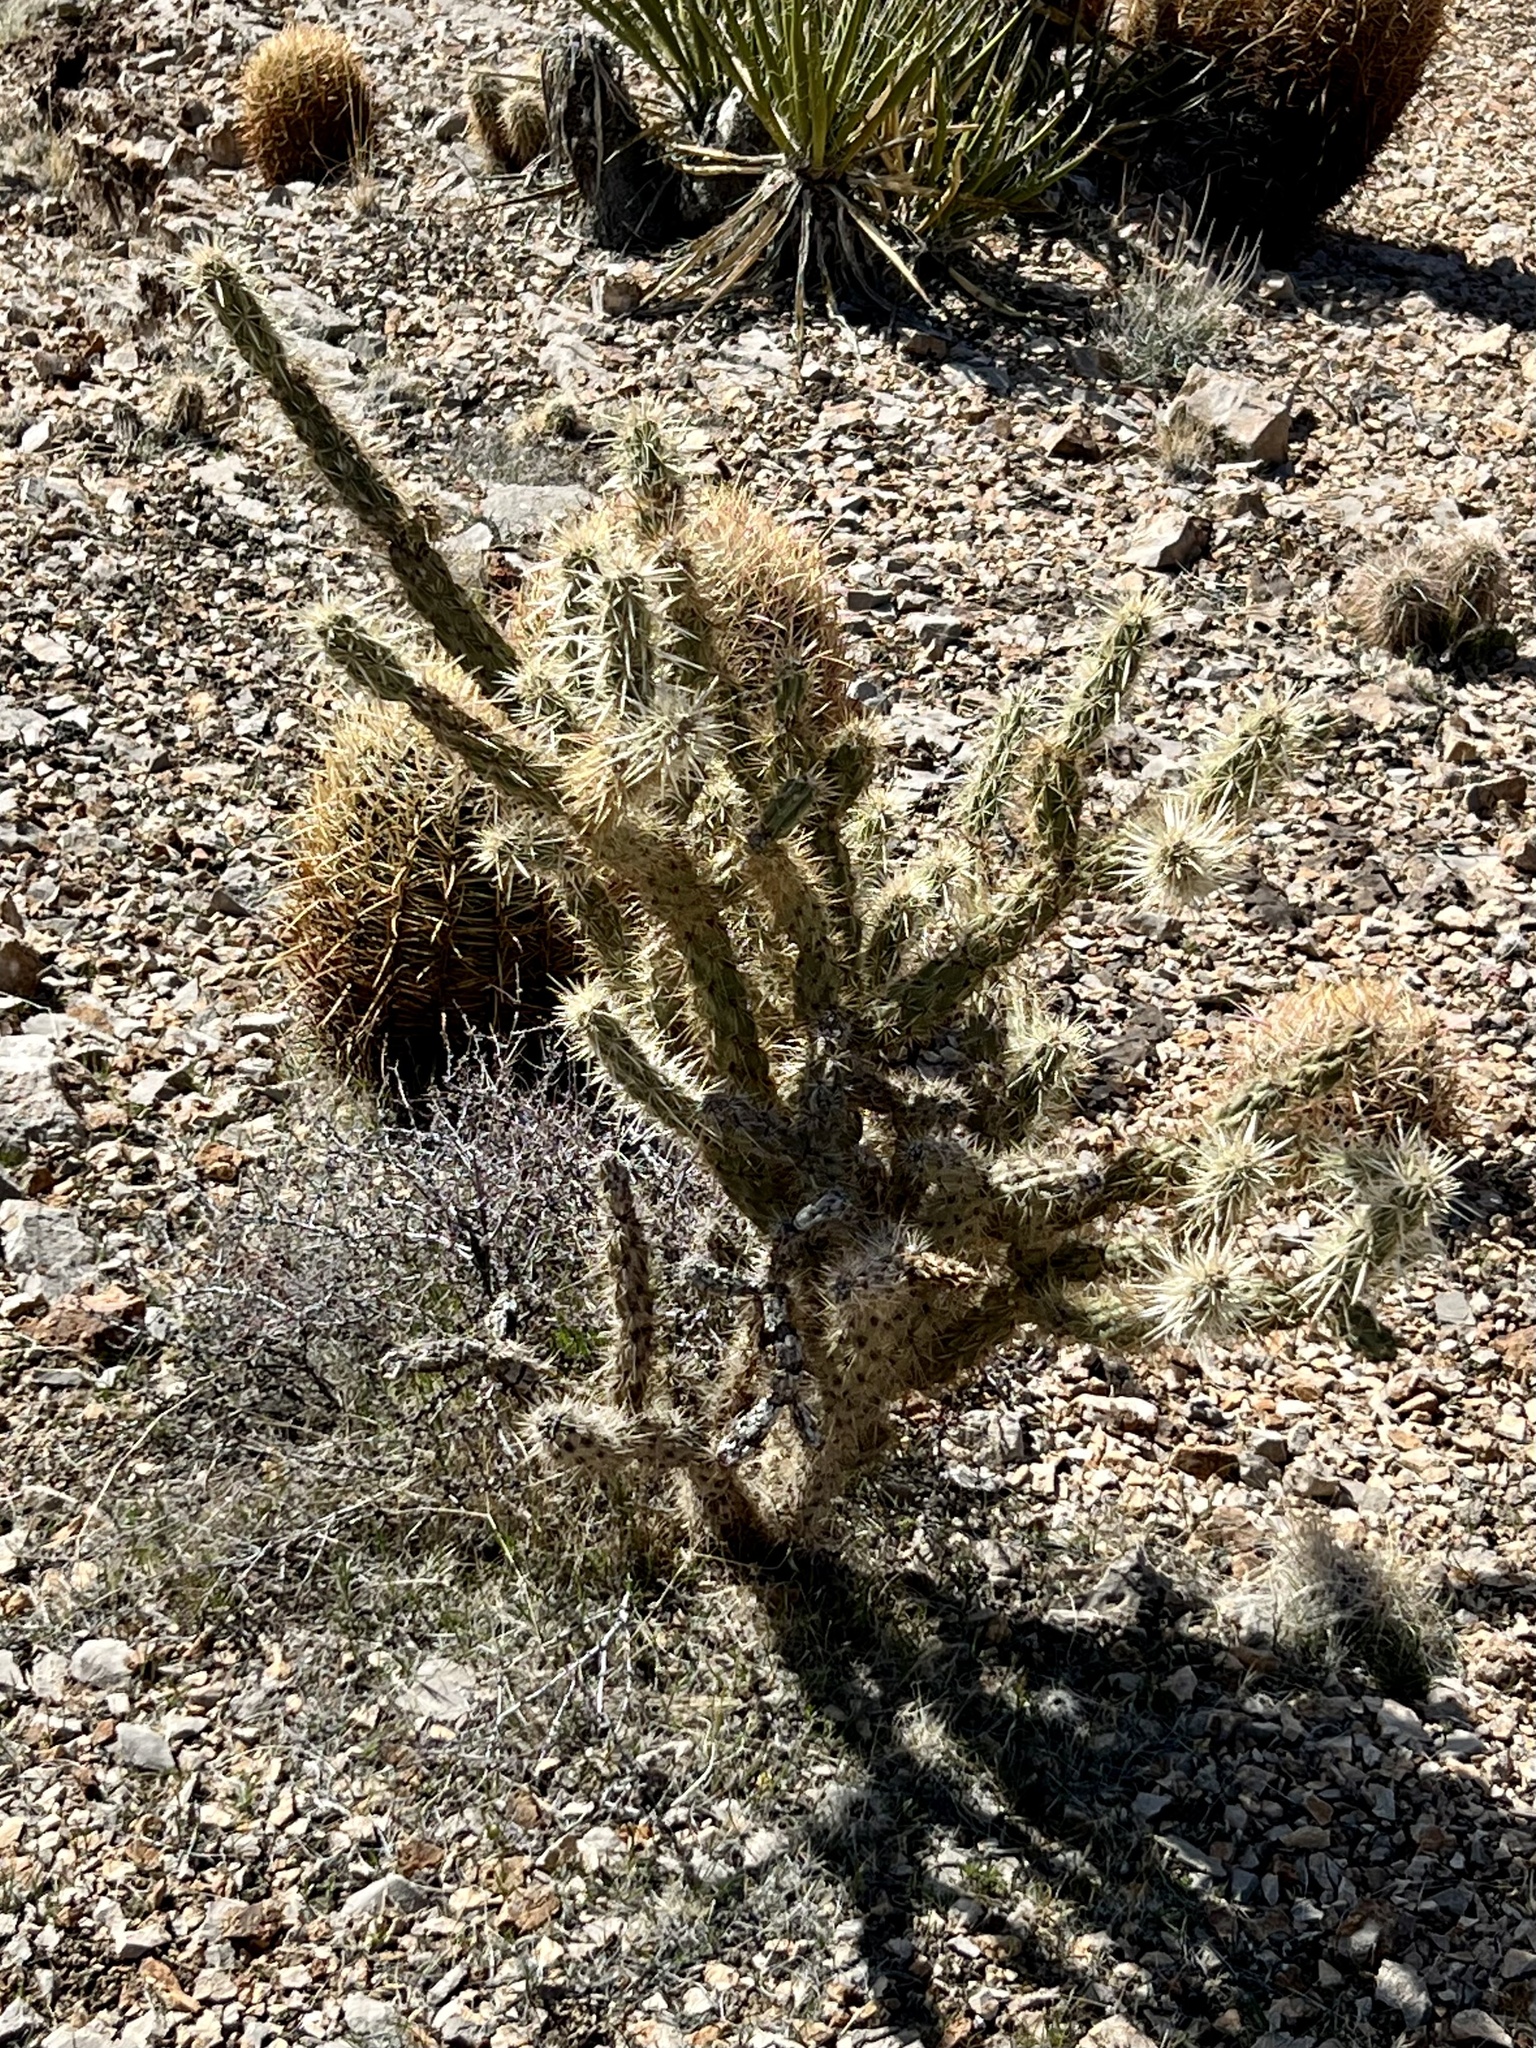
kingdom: Plantae
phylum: Tracheophyta
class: Magnoliopsida
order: Caryophyllales
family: Cactaceae
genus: Cylindropuntia
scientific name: Cylindropuntia acanthocarpa
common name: Buckhorn cholla
